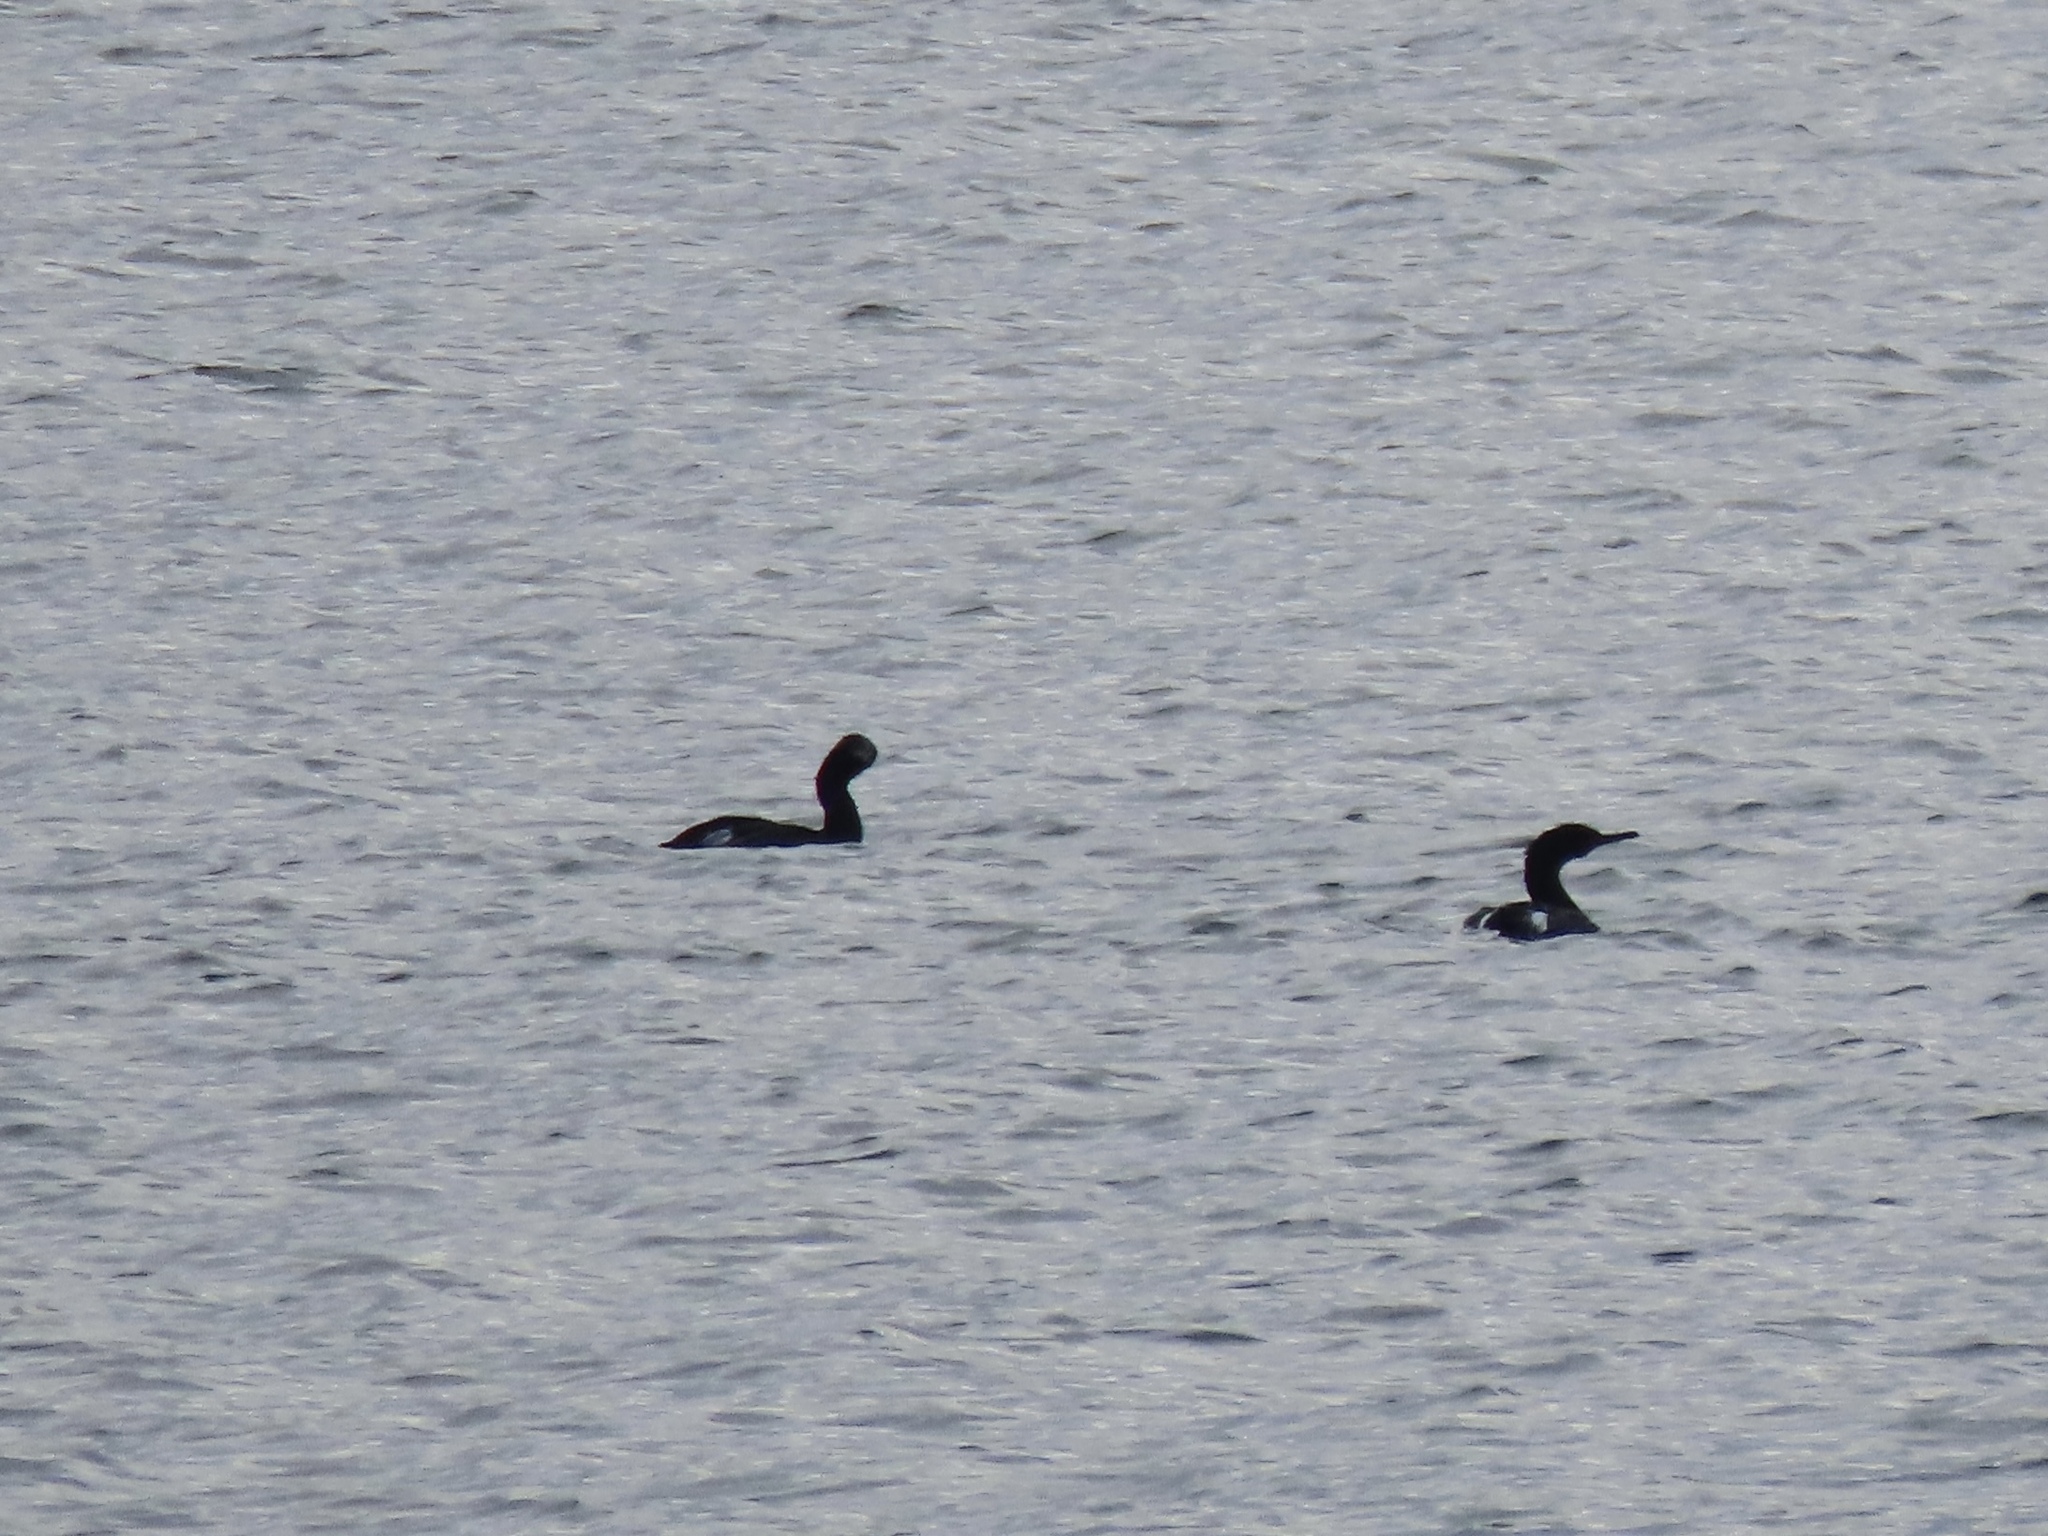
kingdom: Animalia
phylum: Chordata
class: Aves
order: Suliformes
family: Phalacrocoracidae
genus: Phalacrocorax
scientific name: Phalacrocorax pelagicus
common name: Pelagic cormorant
